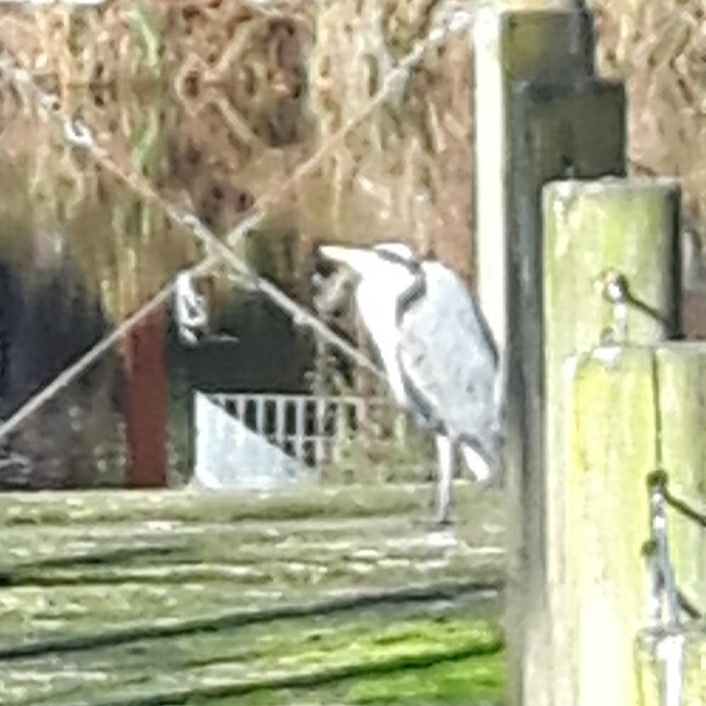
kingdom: Animalia
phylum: Chordata
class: Aves
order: Pelecaniformes
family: Ardeidae
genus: Ardea
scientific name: Ardea cinerea
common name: Grey heron
